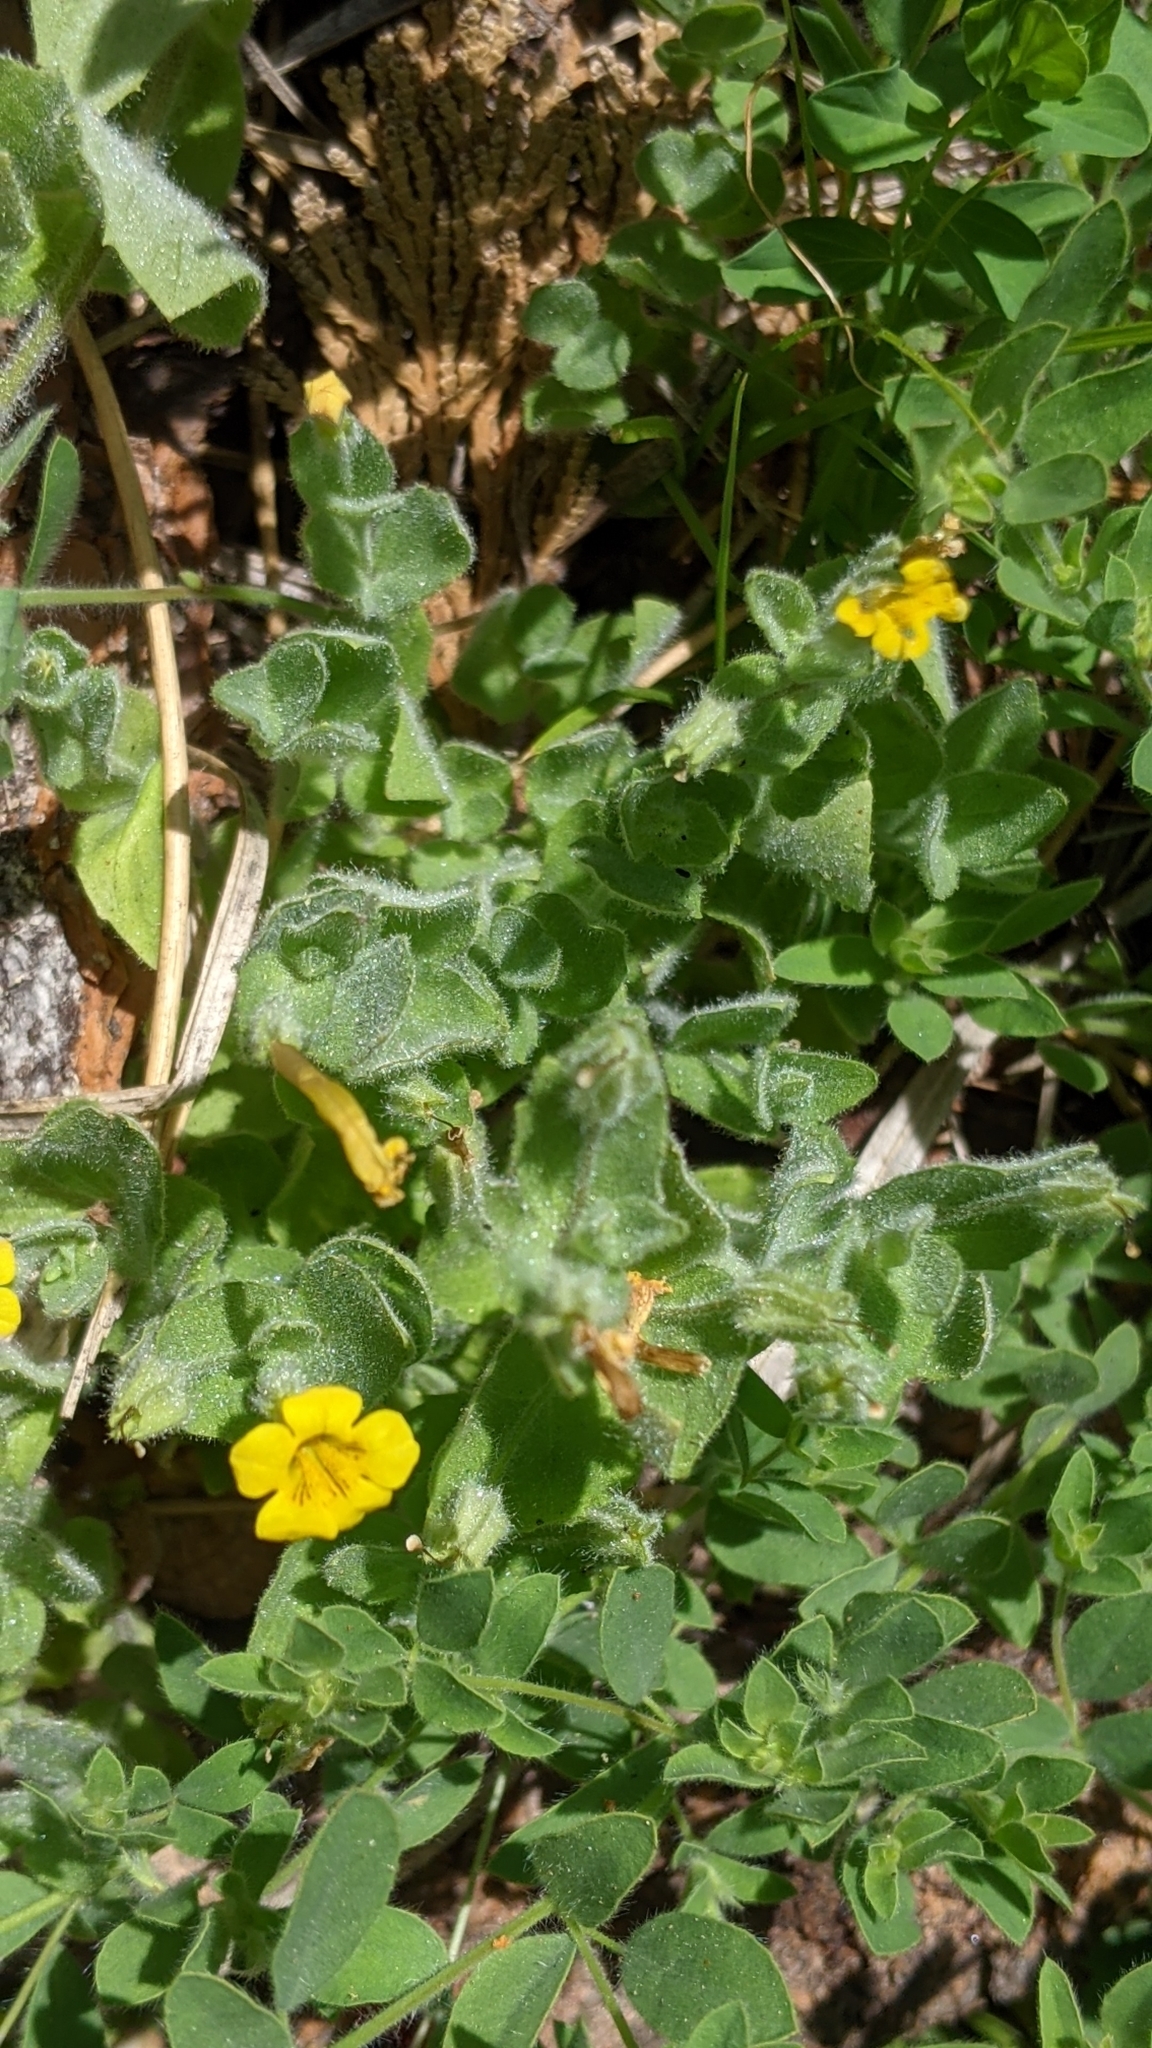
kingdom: Plantae
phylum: Tracheophyta
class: Magnoliopsida
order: Lamiales
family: Phrymaceae
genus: Erythranthe
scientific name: Erythranthe moschata
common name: Muskflower
